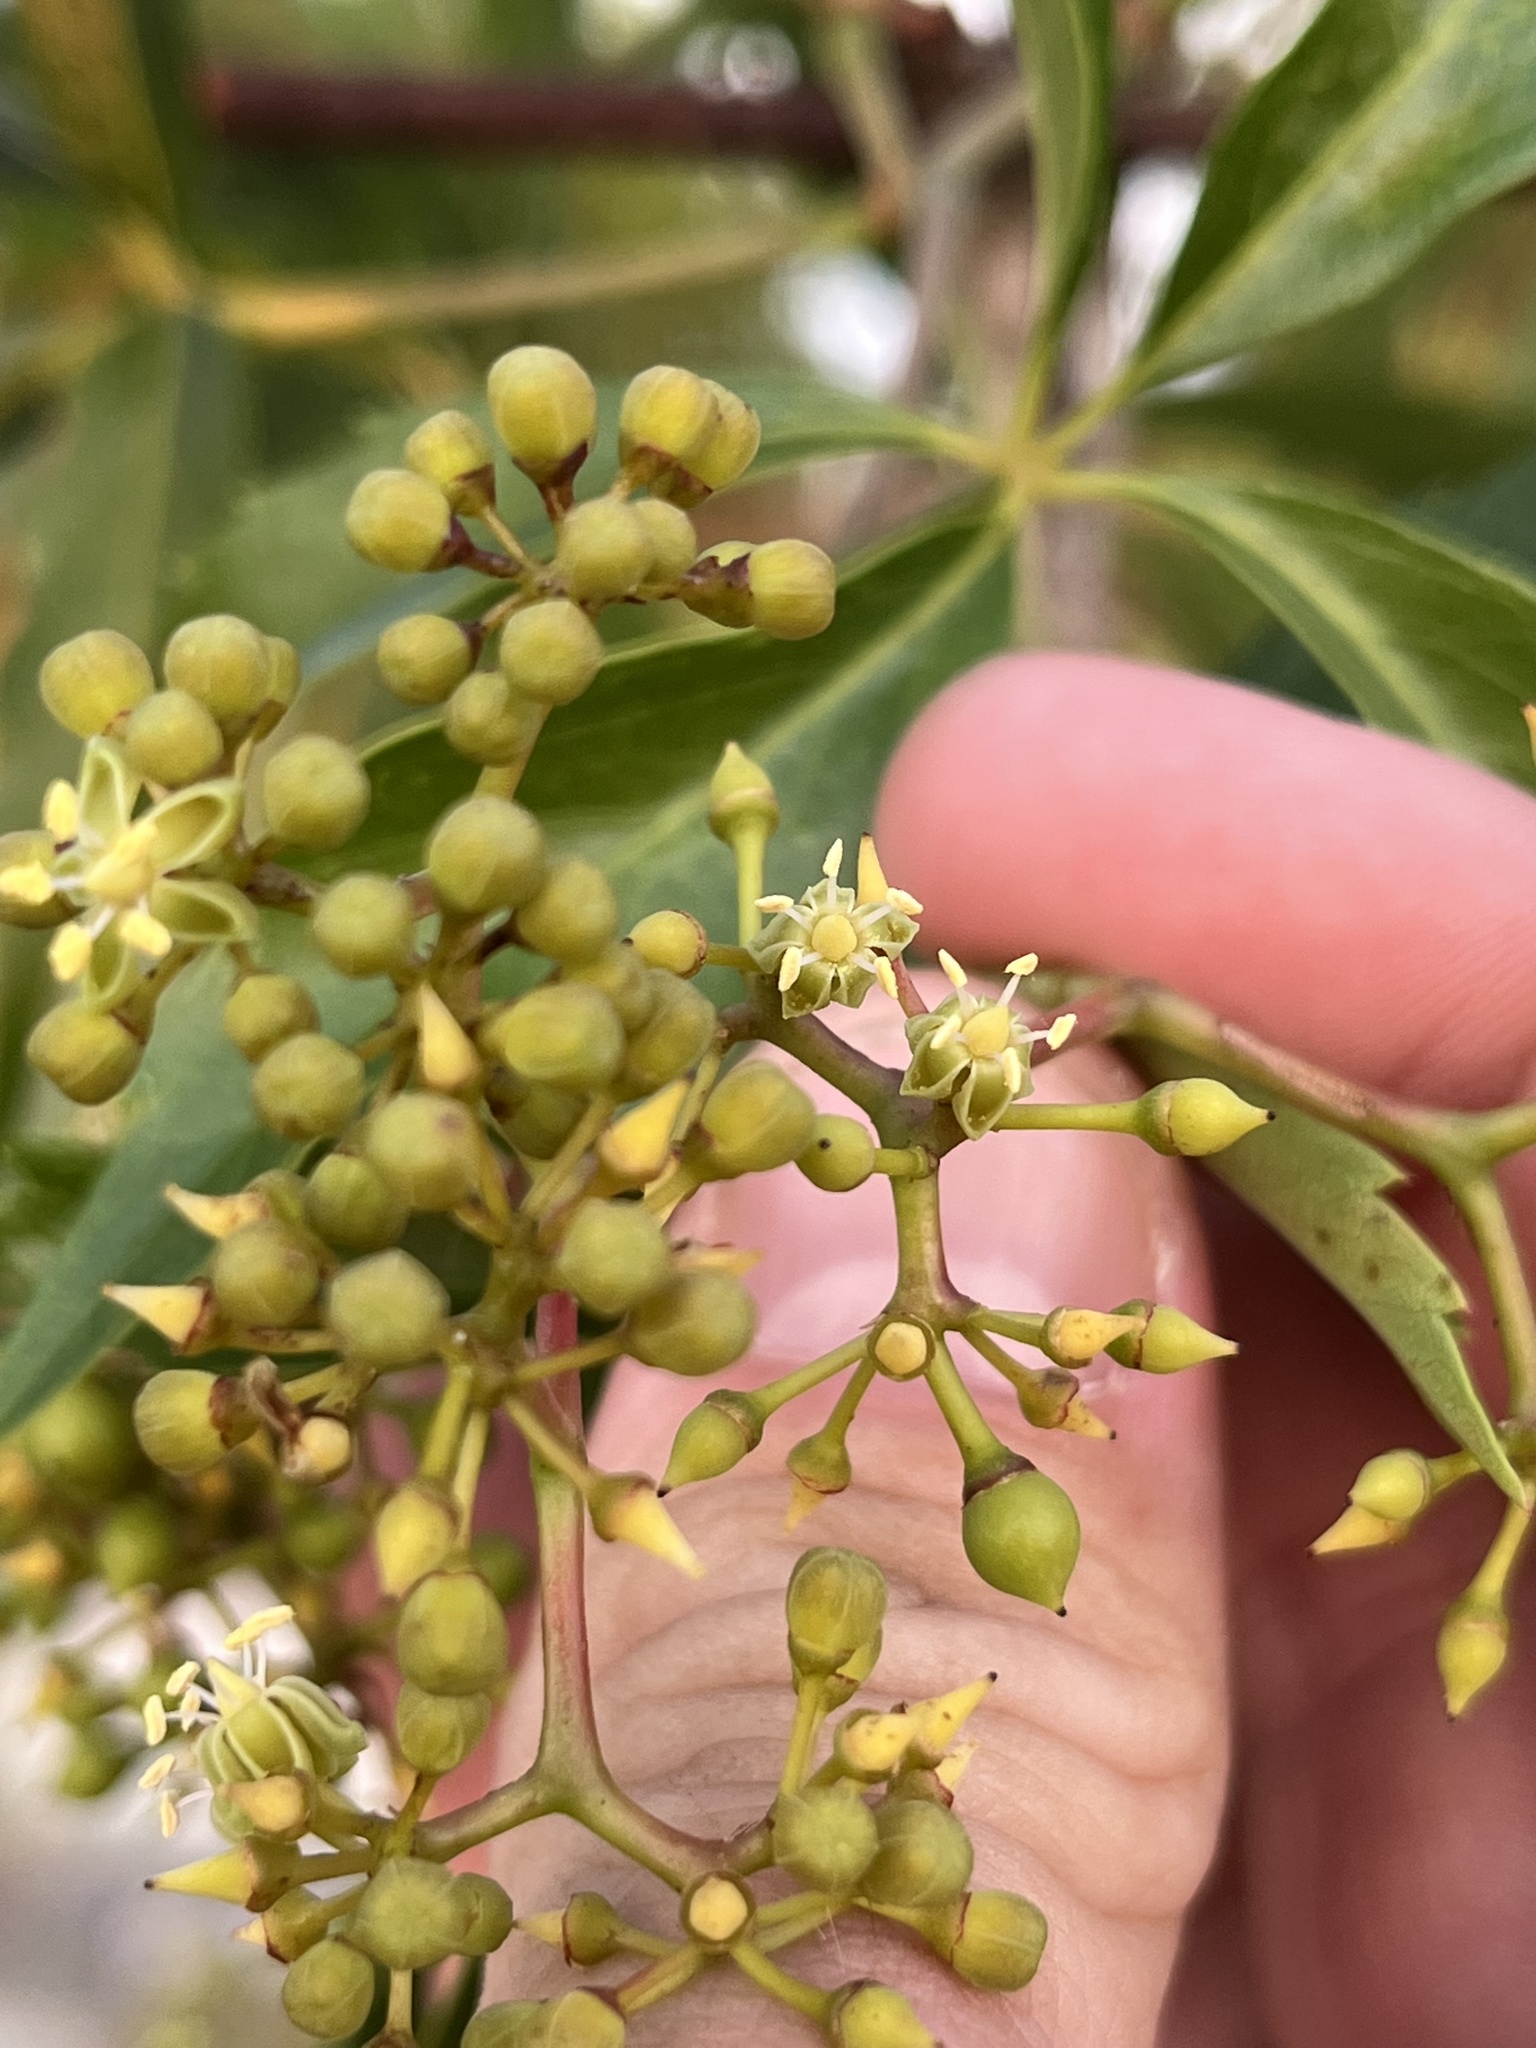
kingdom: Plantae
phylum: Tracheophyta
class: Magnoliopsida
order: Vitales
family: Vitaceae
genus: Parthenocissus
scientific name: Parthenocissus heptaphylla
